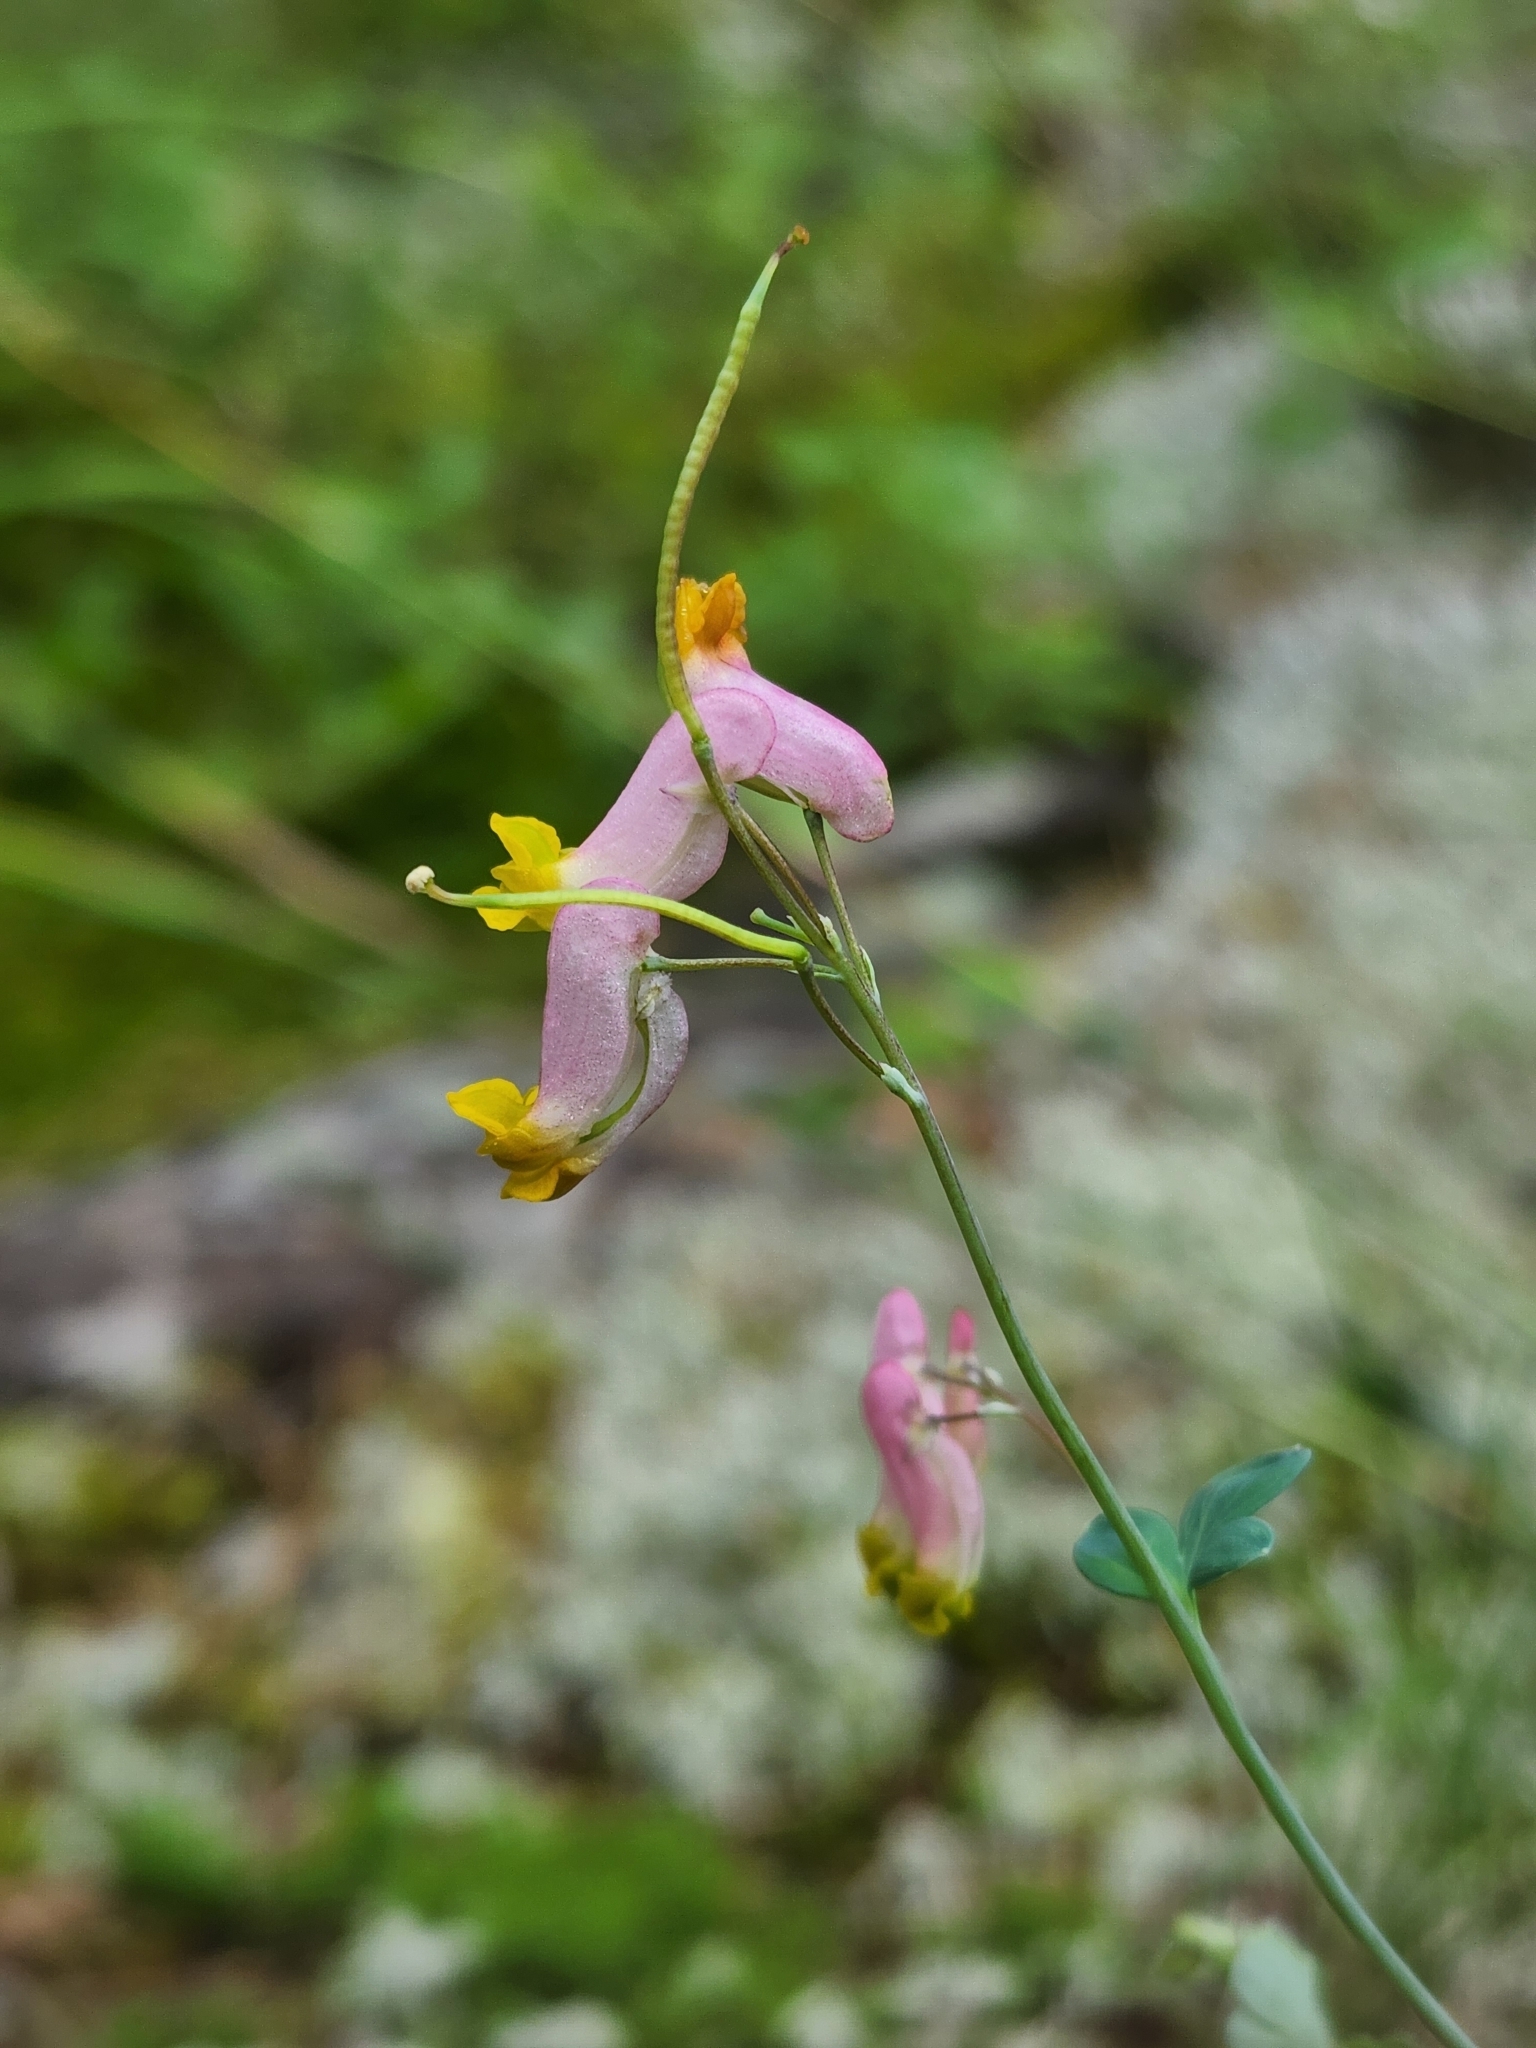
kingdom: Plantae
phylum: Tracheophyta
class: Magnoliopsida
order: Ranunculales
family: Papaveraceae
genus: Capnoides
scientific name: Capnoides sempervirens
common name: Rock harlequin
